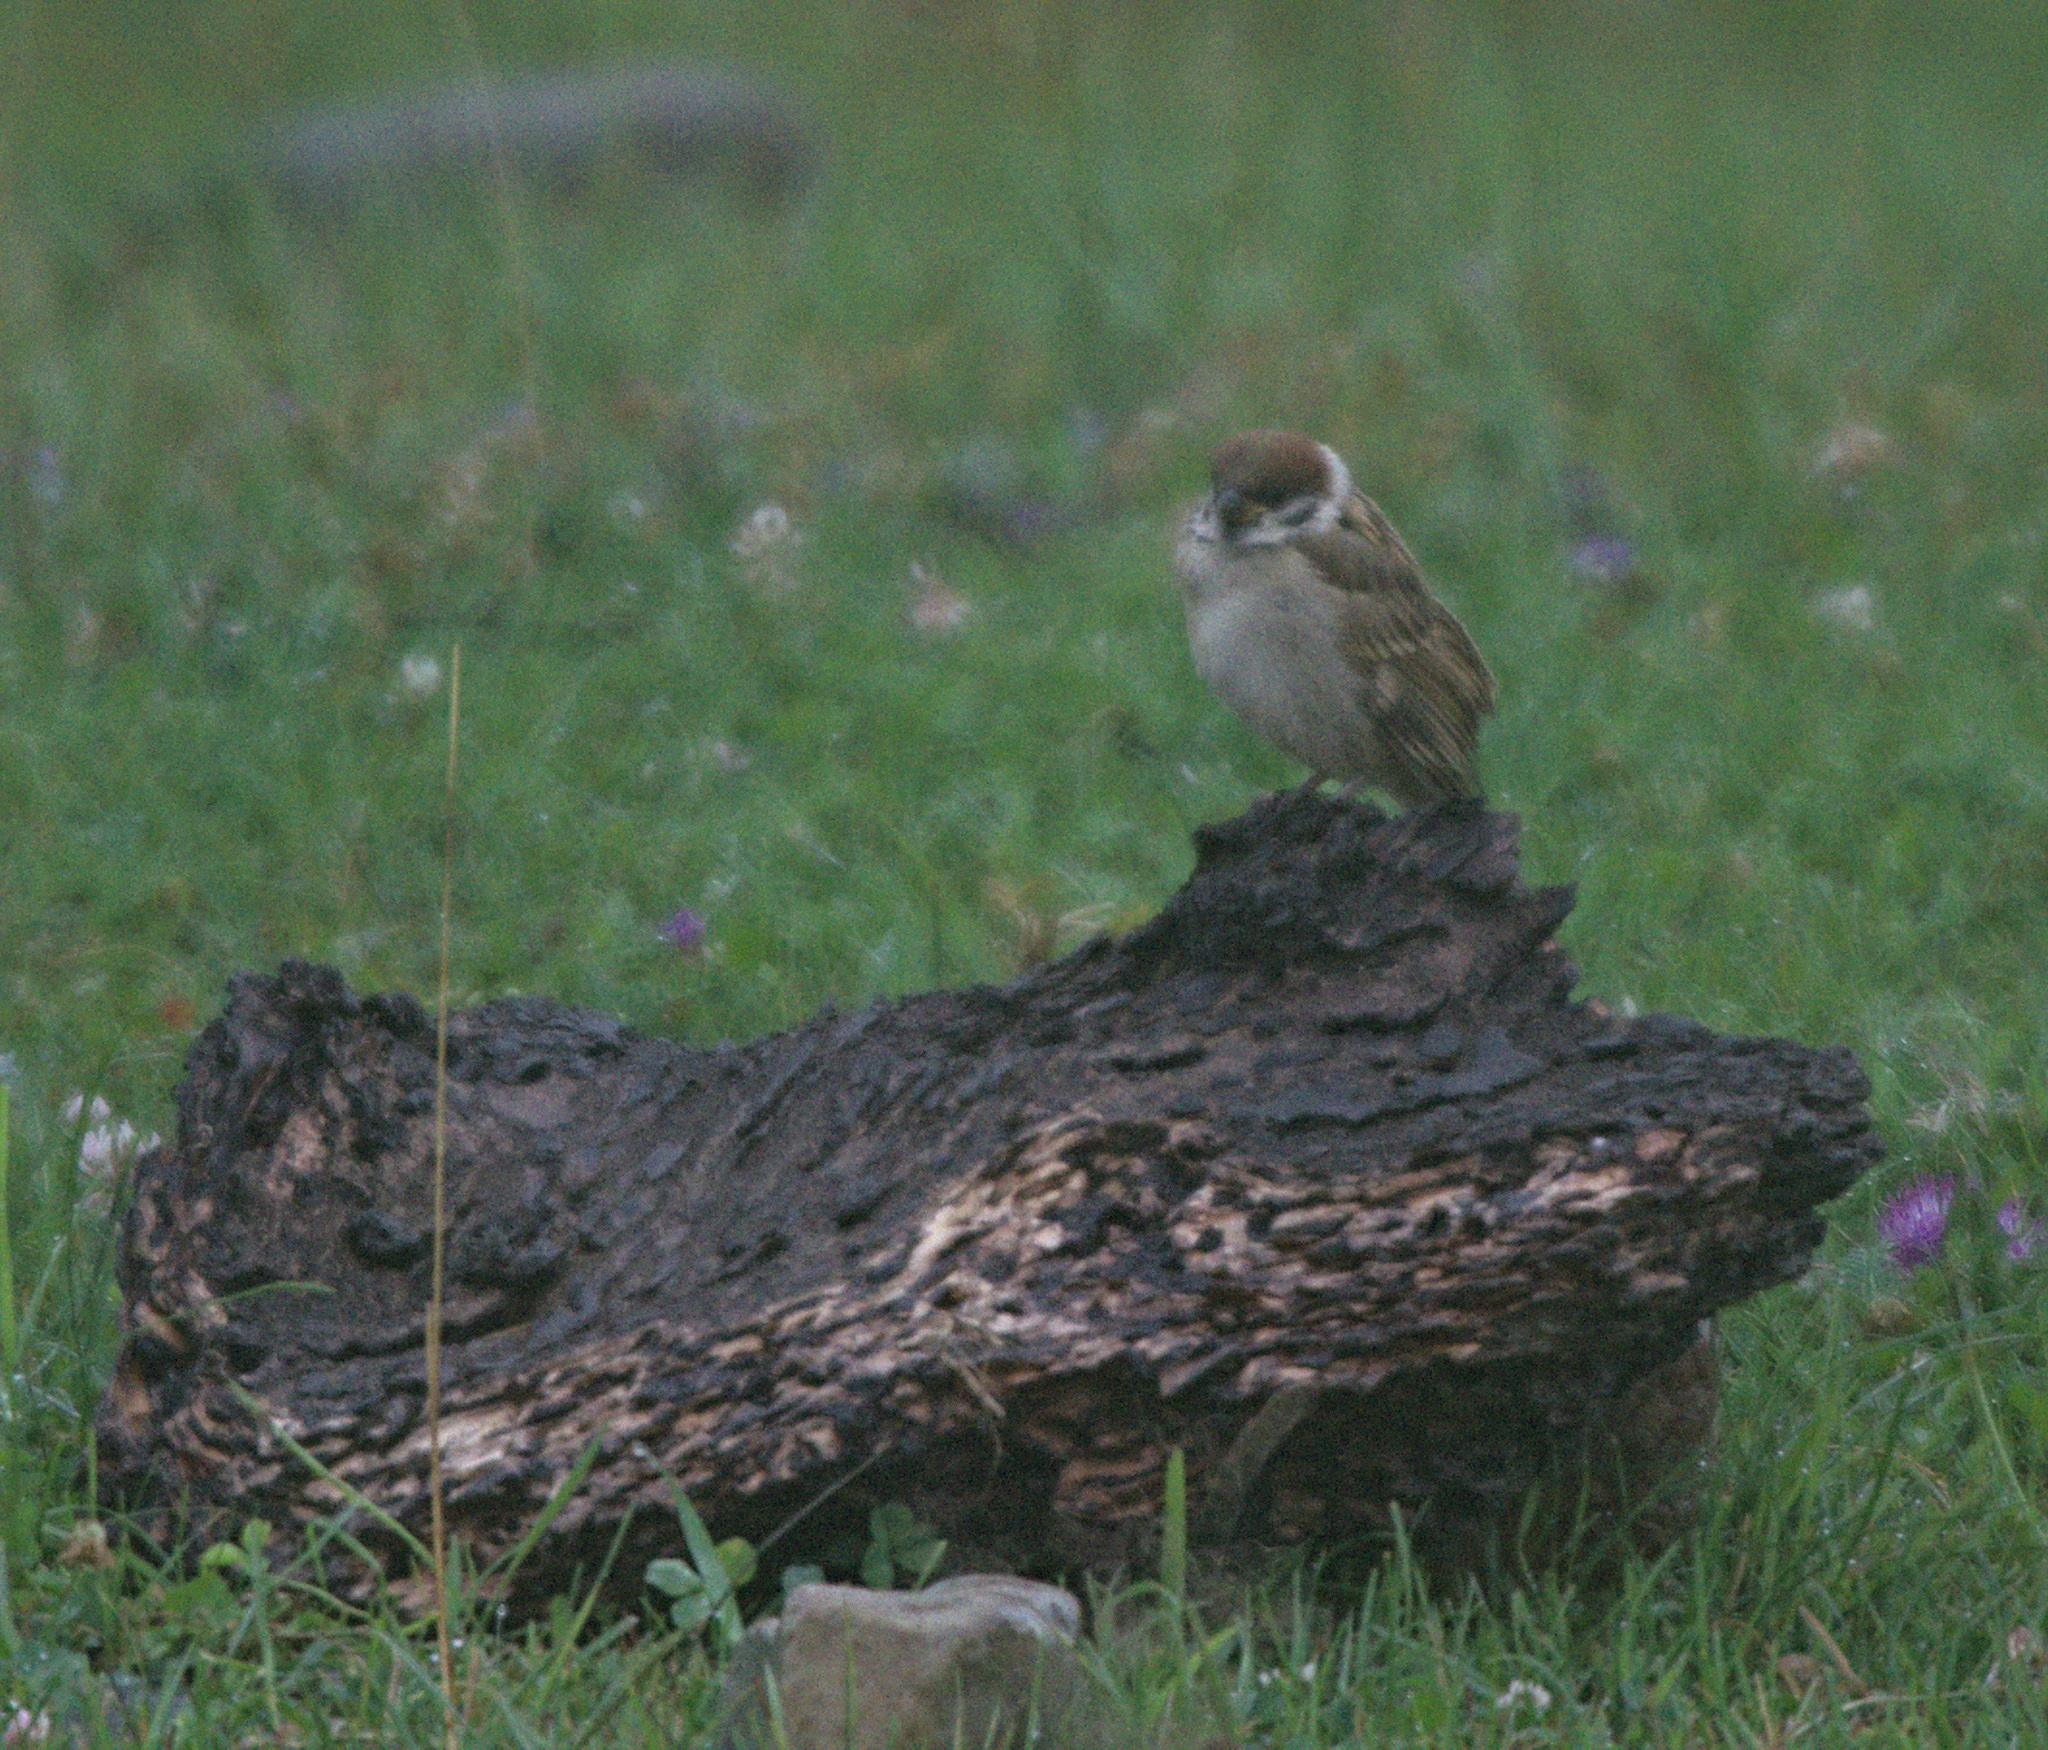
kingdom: Animalia
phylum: Chordata
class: Aves
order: Passeriformes
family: Passeridae
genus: Passer
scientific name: Passer montanus
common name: Eurasian tree sparrow
